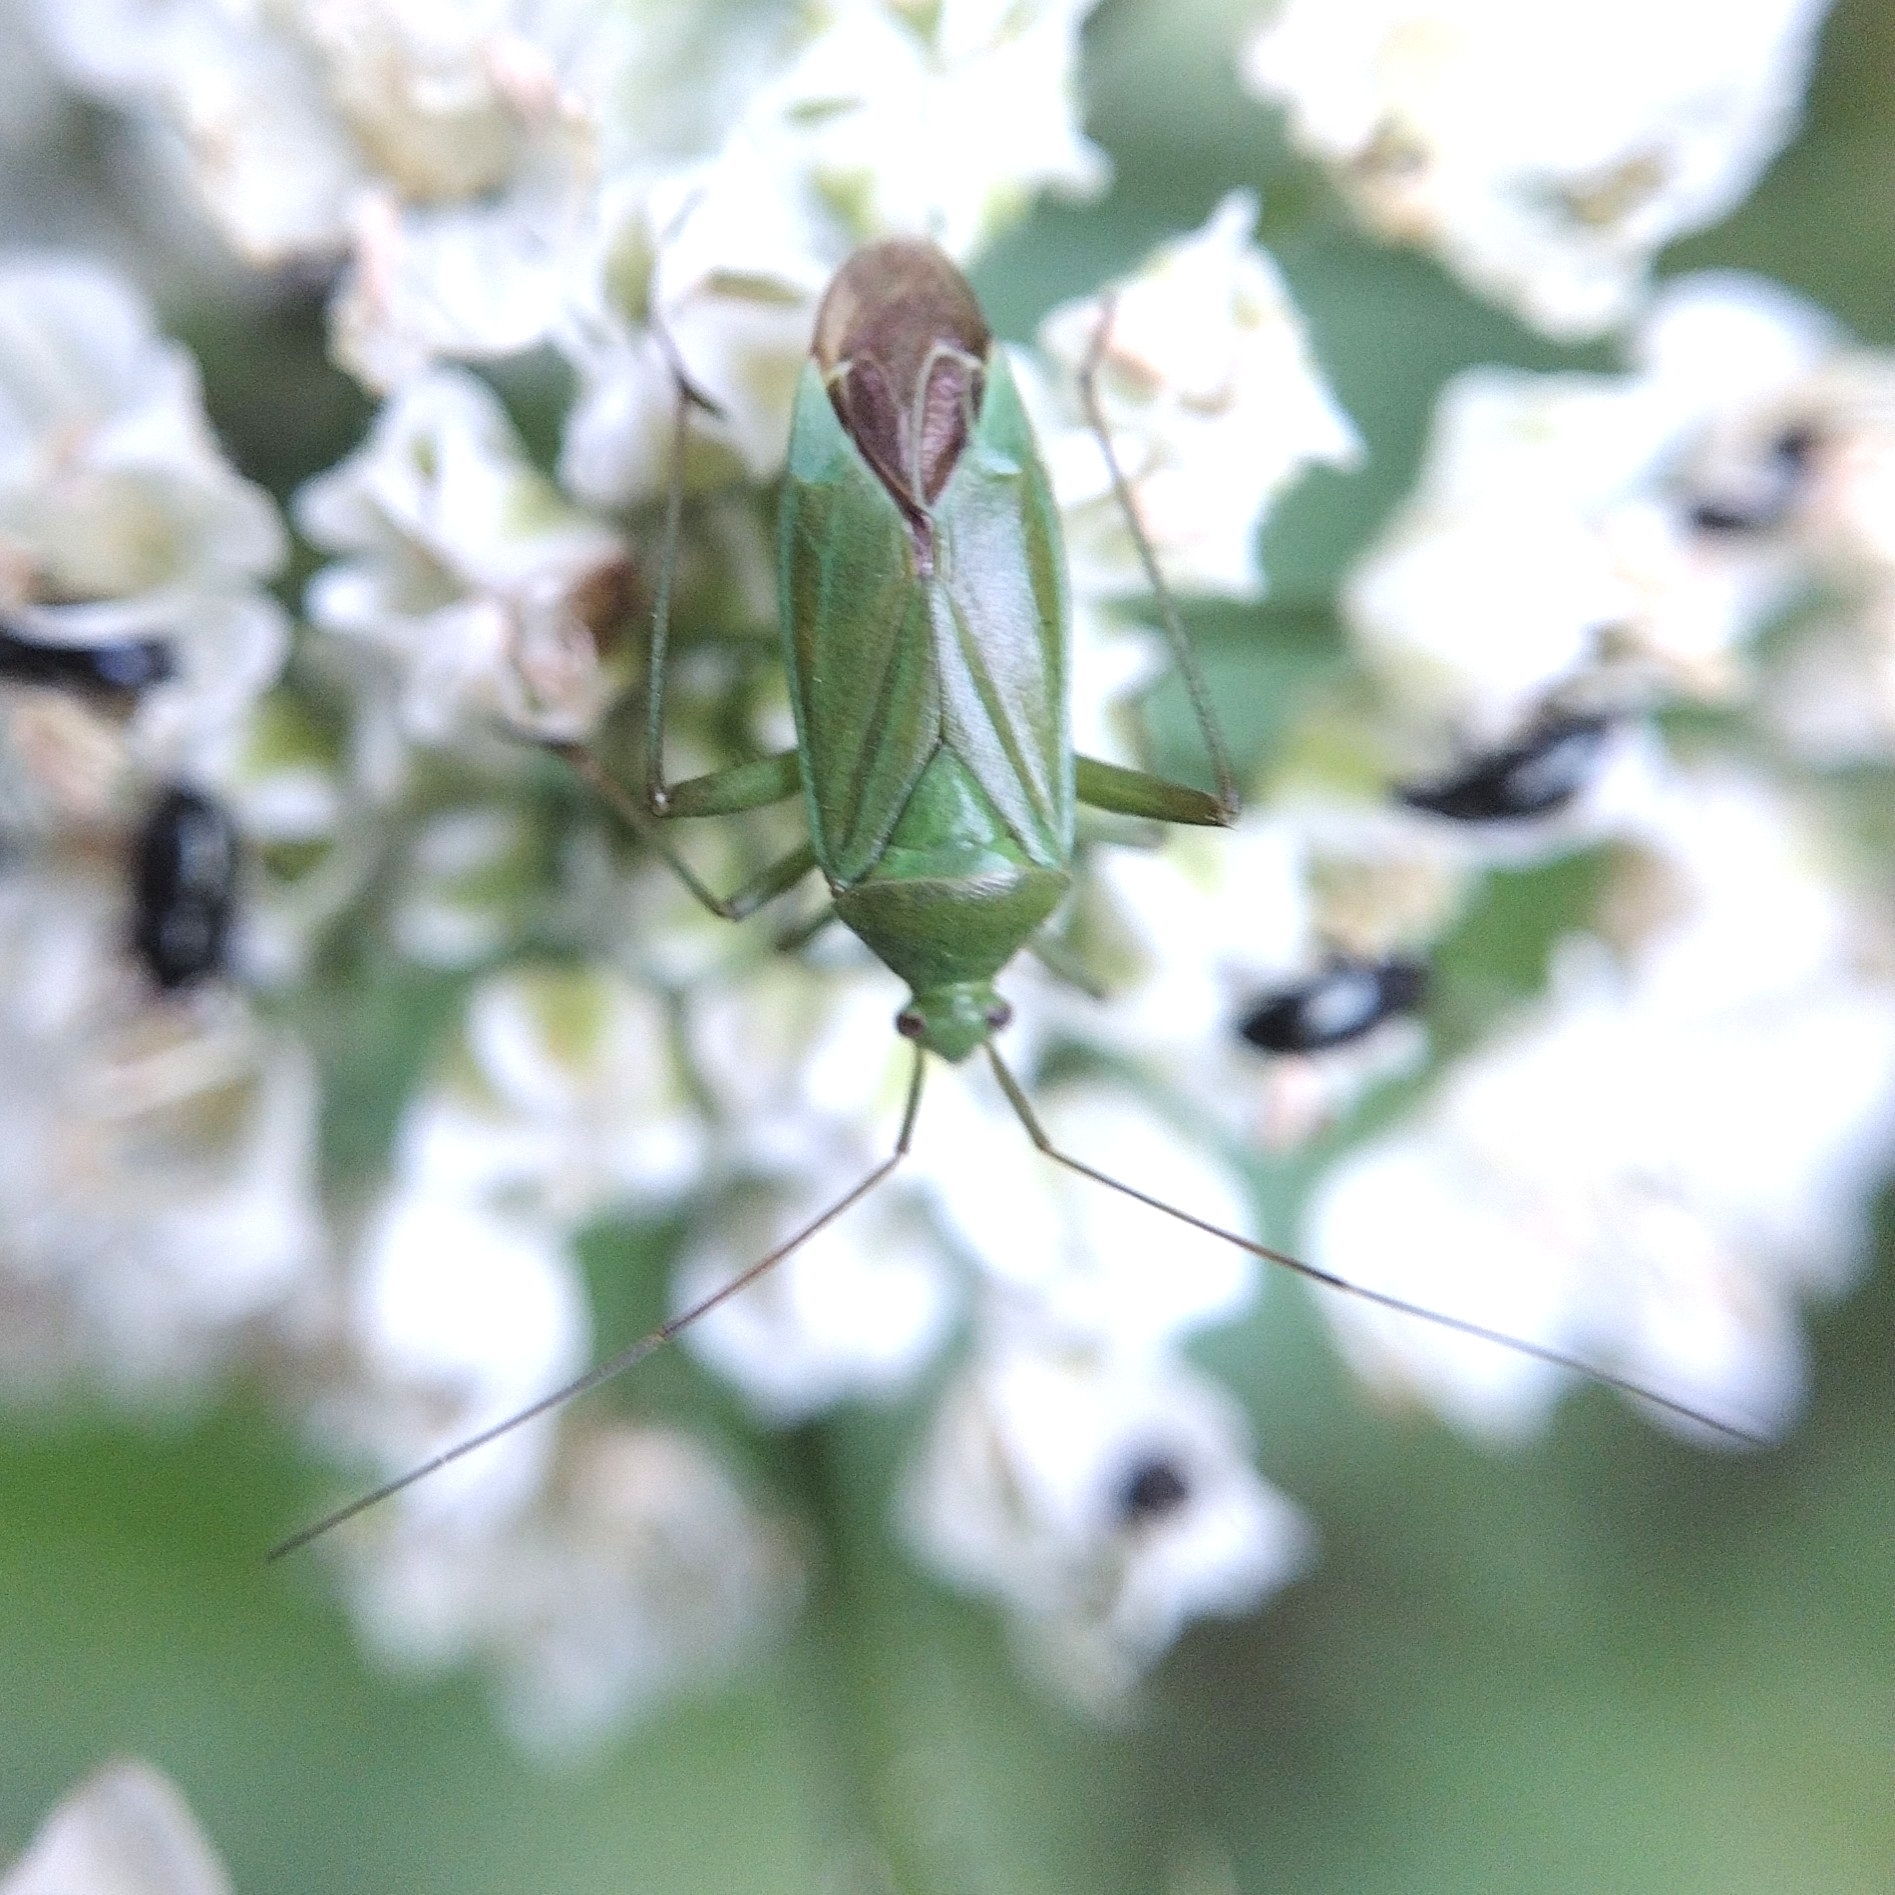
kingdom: Animalia
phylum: Arthropoda
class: Insecta
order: Hemiptera
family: Miridae
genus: Calocoris
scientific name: Calocoris affinis
